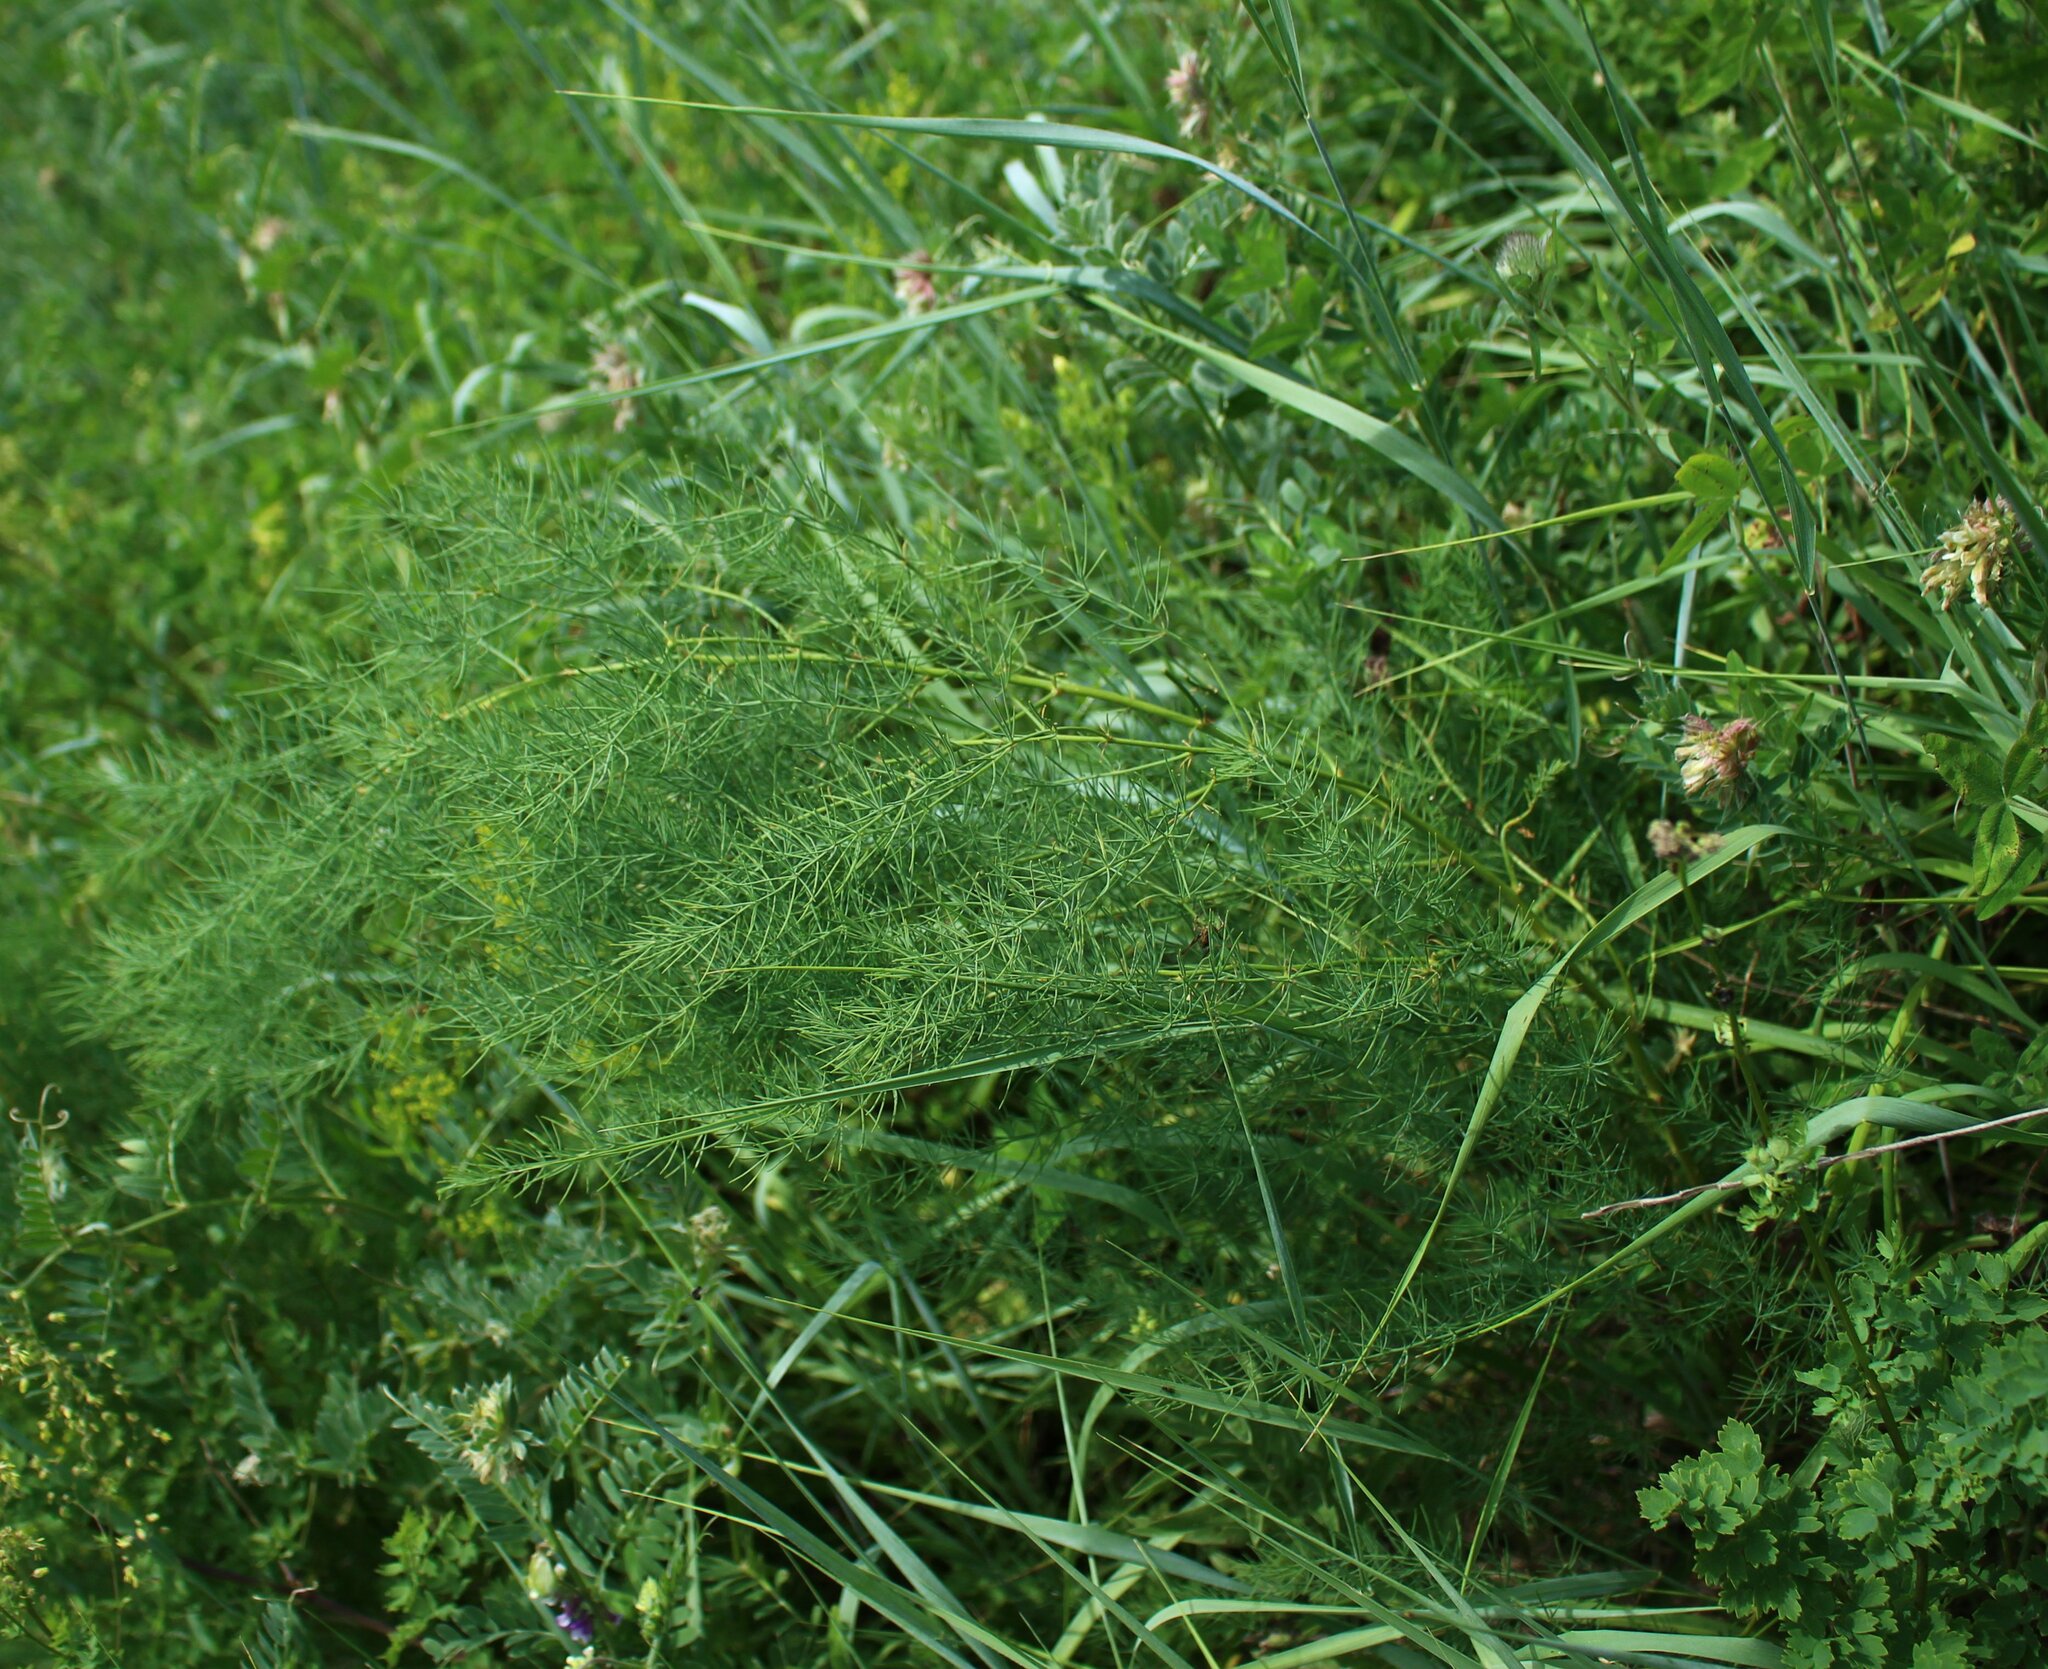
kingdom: Plantae
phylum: Tracheophyta
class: Liliopsida
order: Asparagales
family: Asparagaceae
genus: Asparagus
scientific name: Asparagus verticillatus
